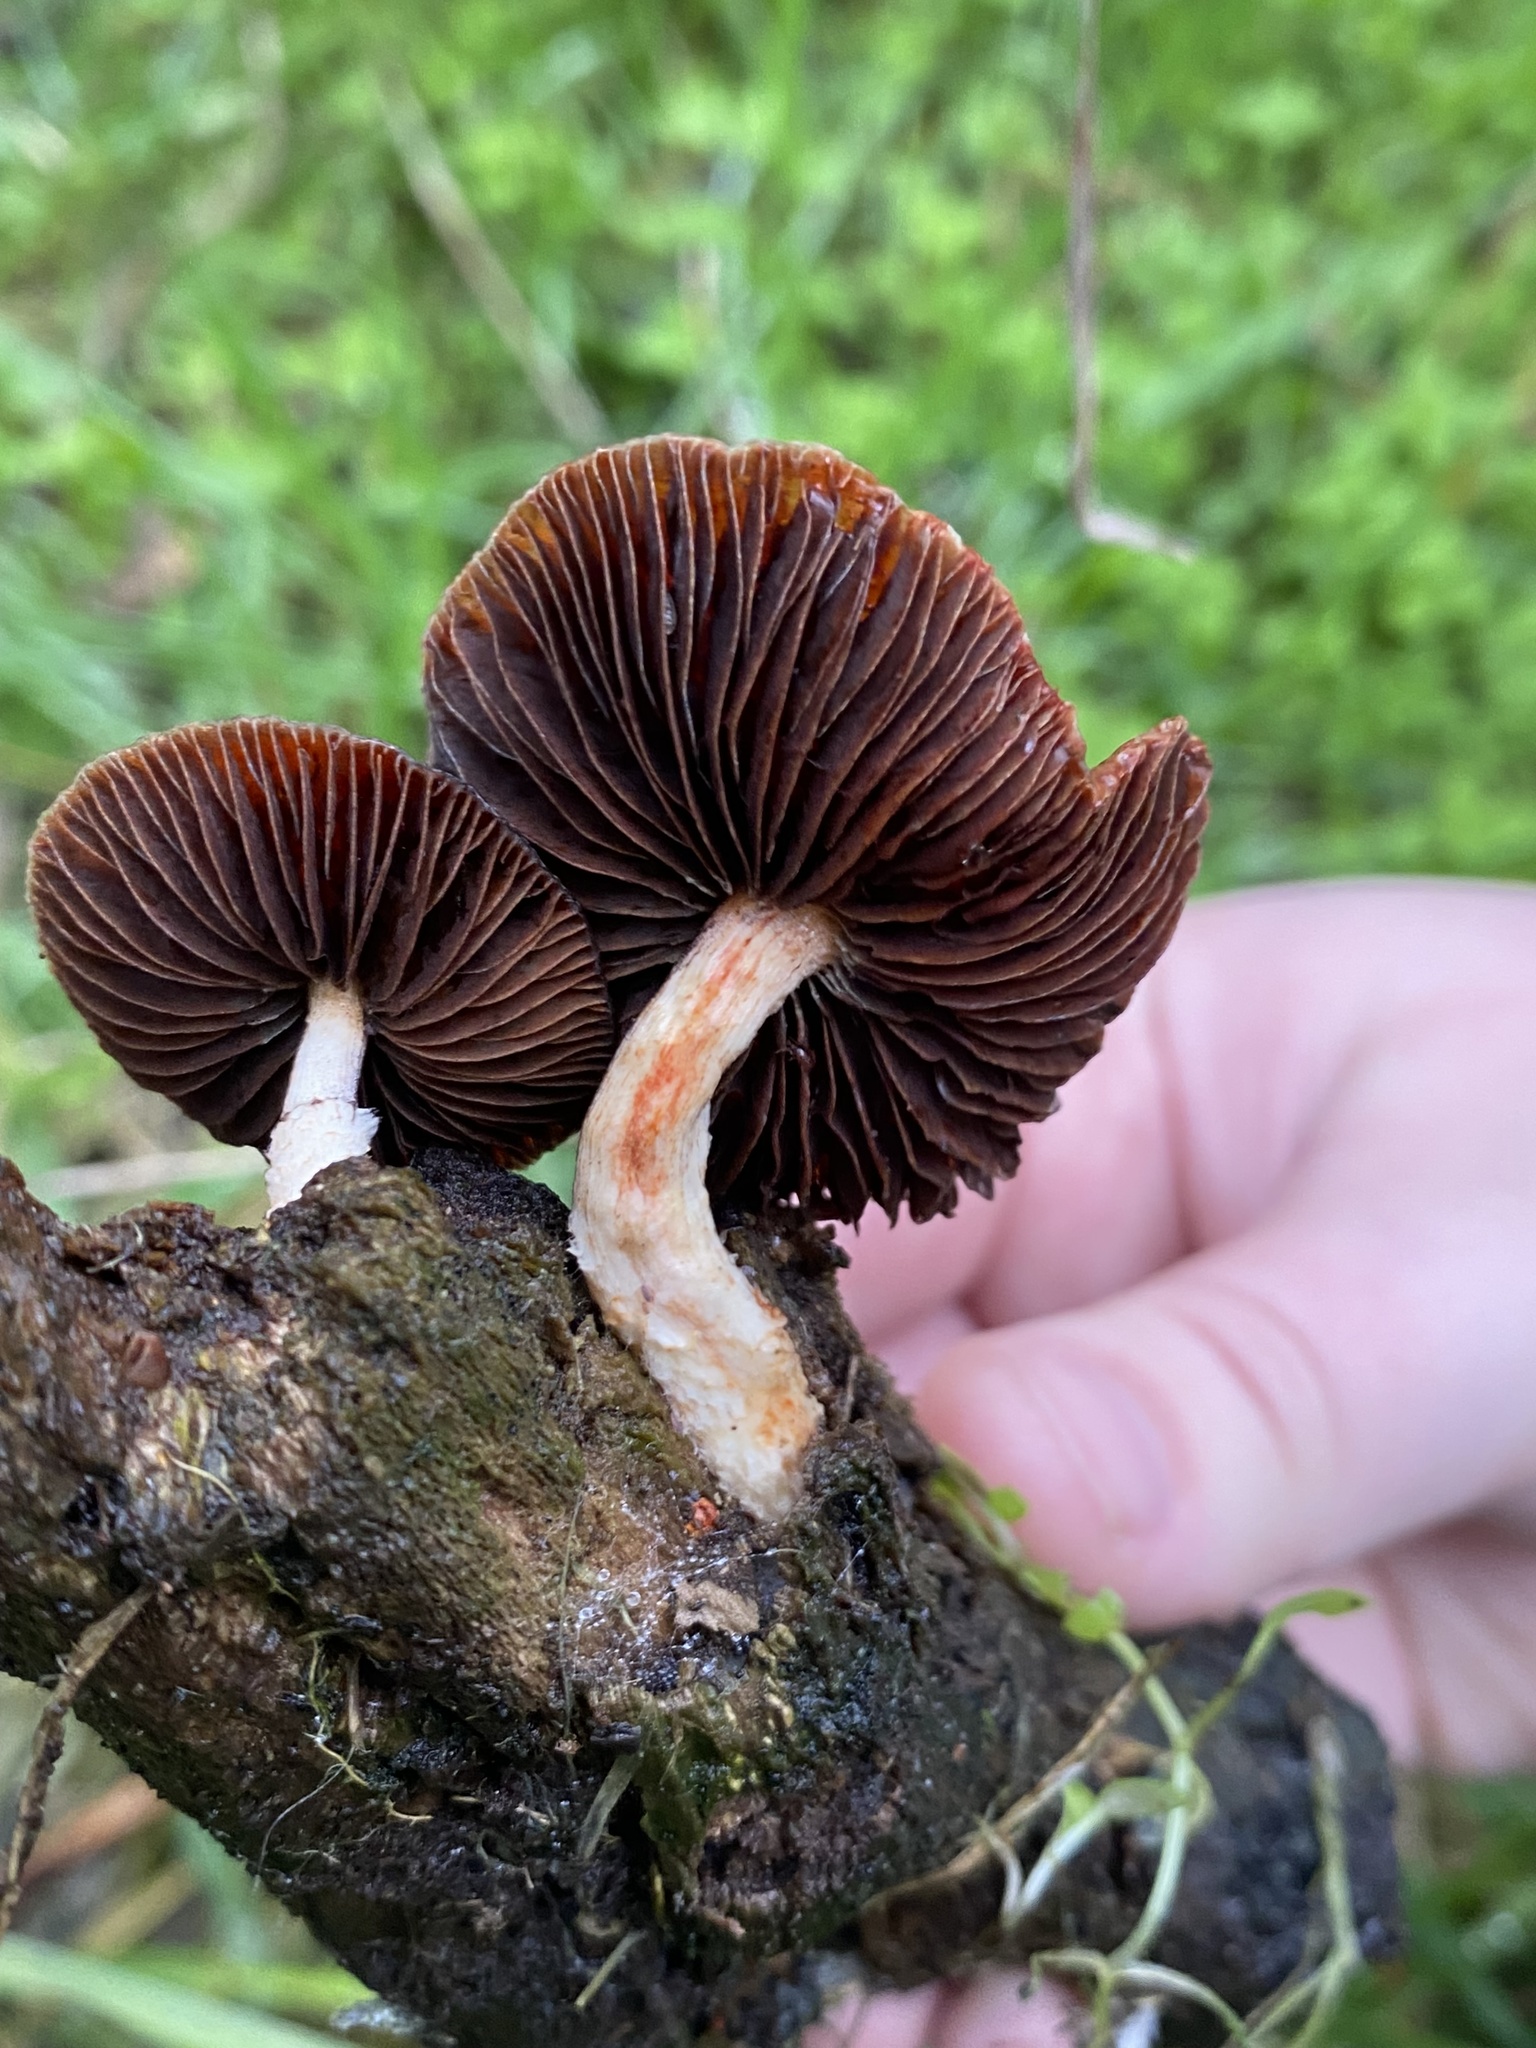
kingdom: Fungi
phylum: Basidiomycota
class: Agaricomycetes
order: Agaricales
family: Strophariaceae
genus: Leratiomyces
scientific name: Leratiomyces ceres
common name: Redlead roundhead
